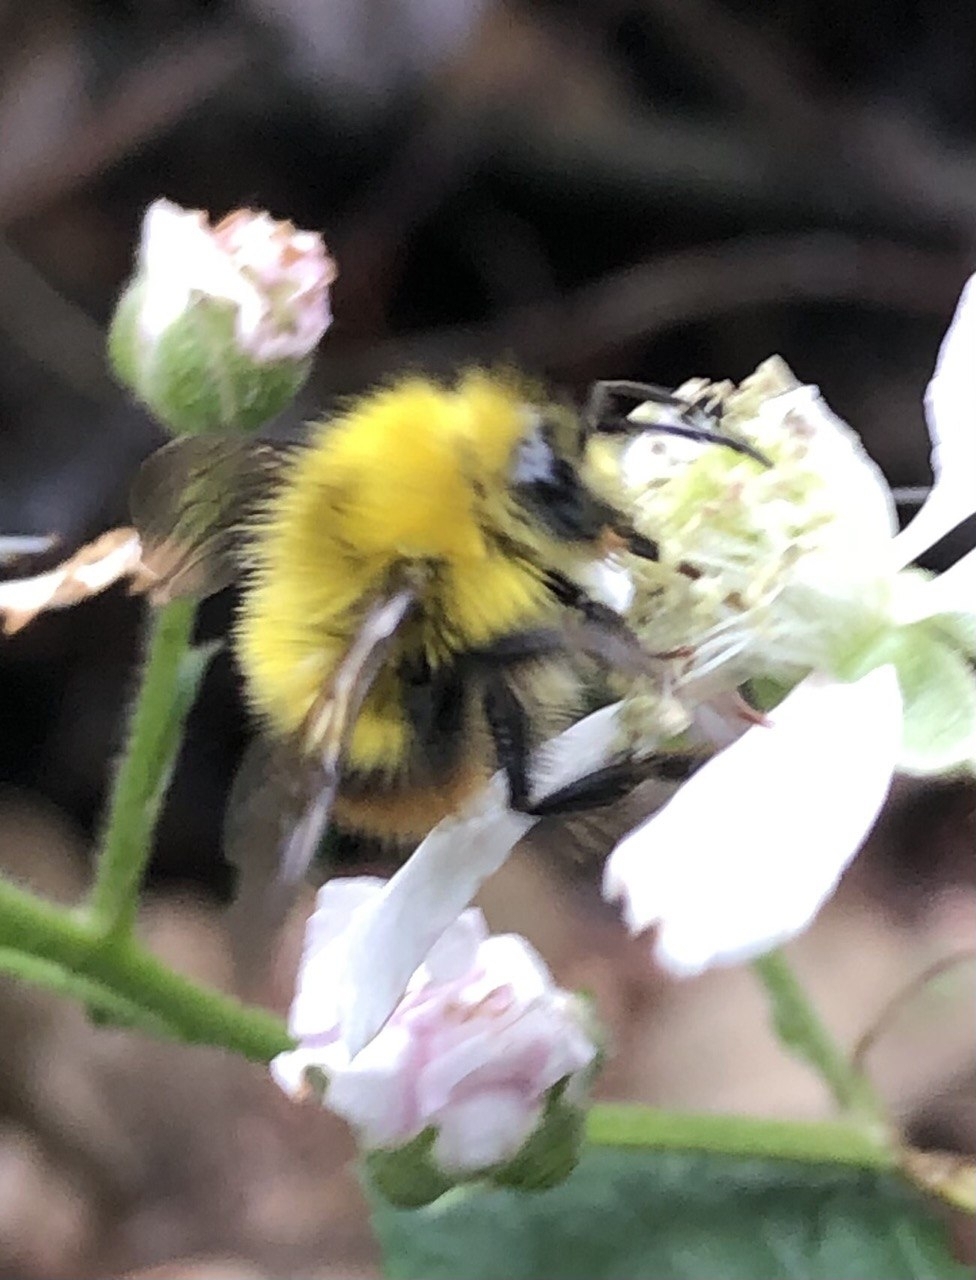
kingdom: Animalia
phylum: Arthropoda
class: Insecta
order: Hymenoptera
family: Apidae
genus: Bombus
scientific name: Bombus pratorum
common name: Early humble-bee
